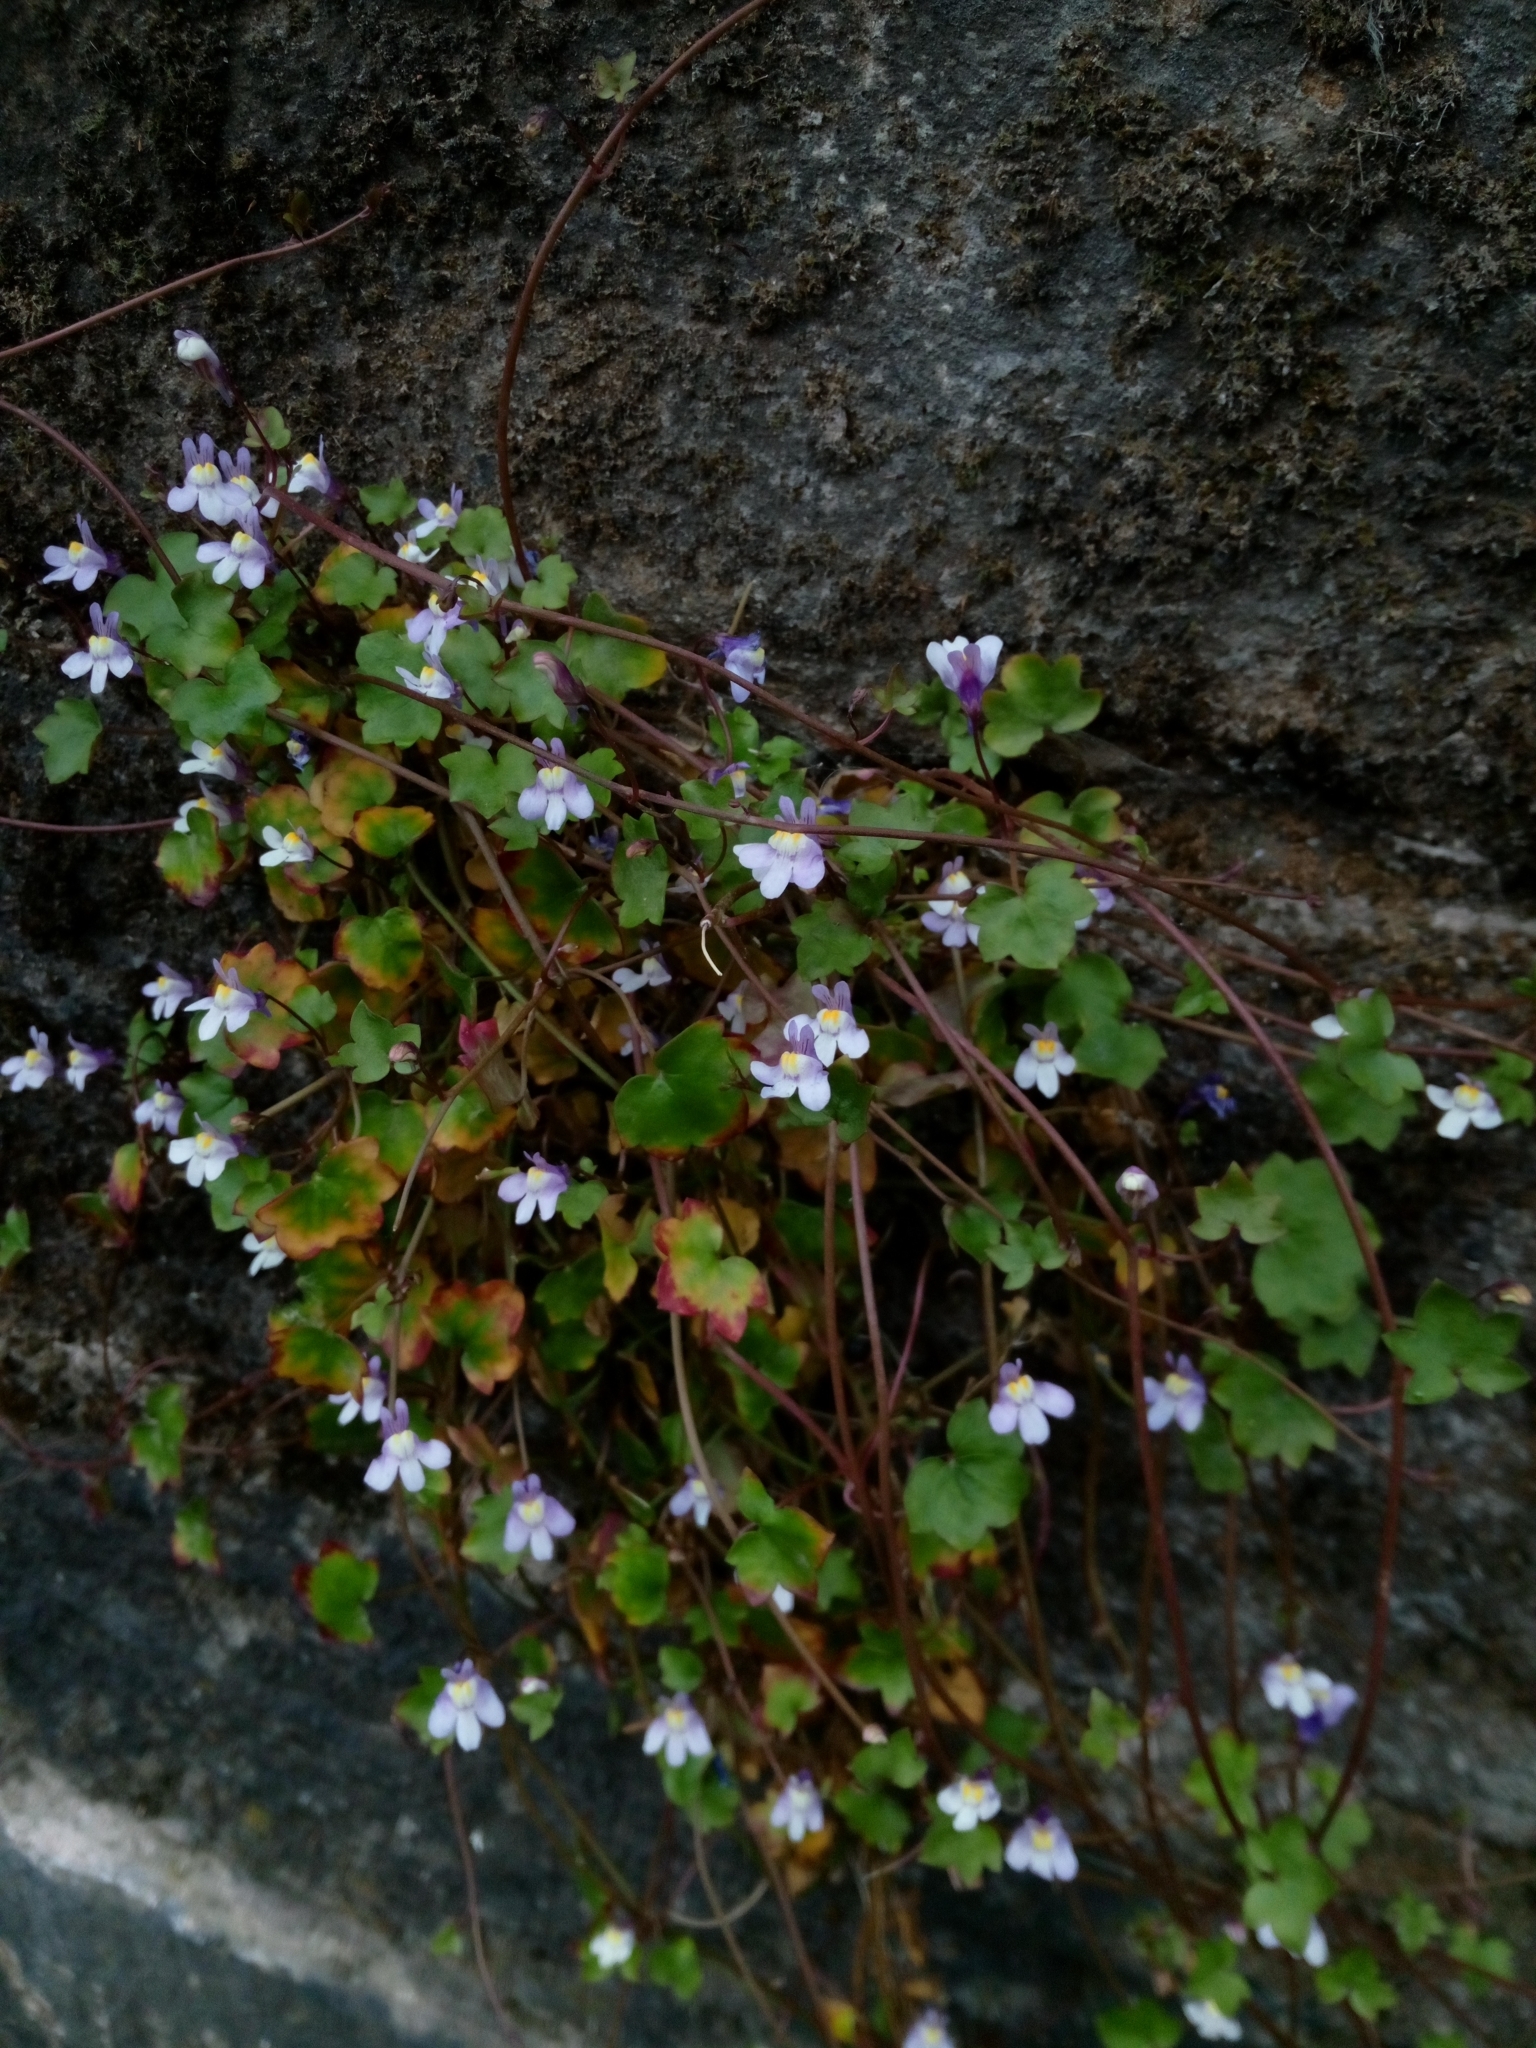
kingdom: Plantae
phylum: Tracheophyta
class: Magnoliopsida
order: Lamiales
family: Plantaginaceae
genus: Cymbalaria
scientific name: Cymbalaria muralis
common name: Ivy-leaved toadflax
